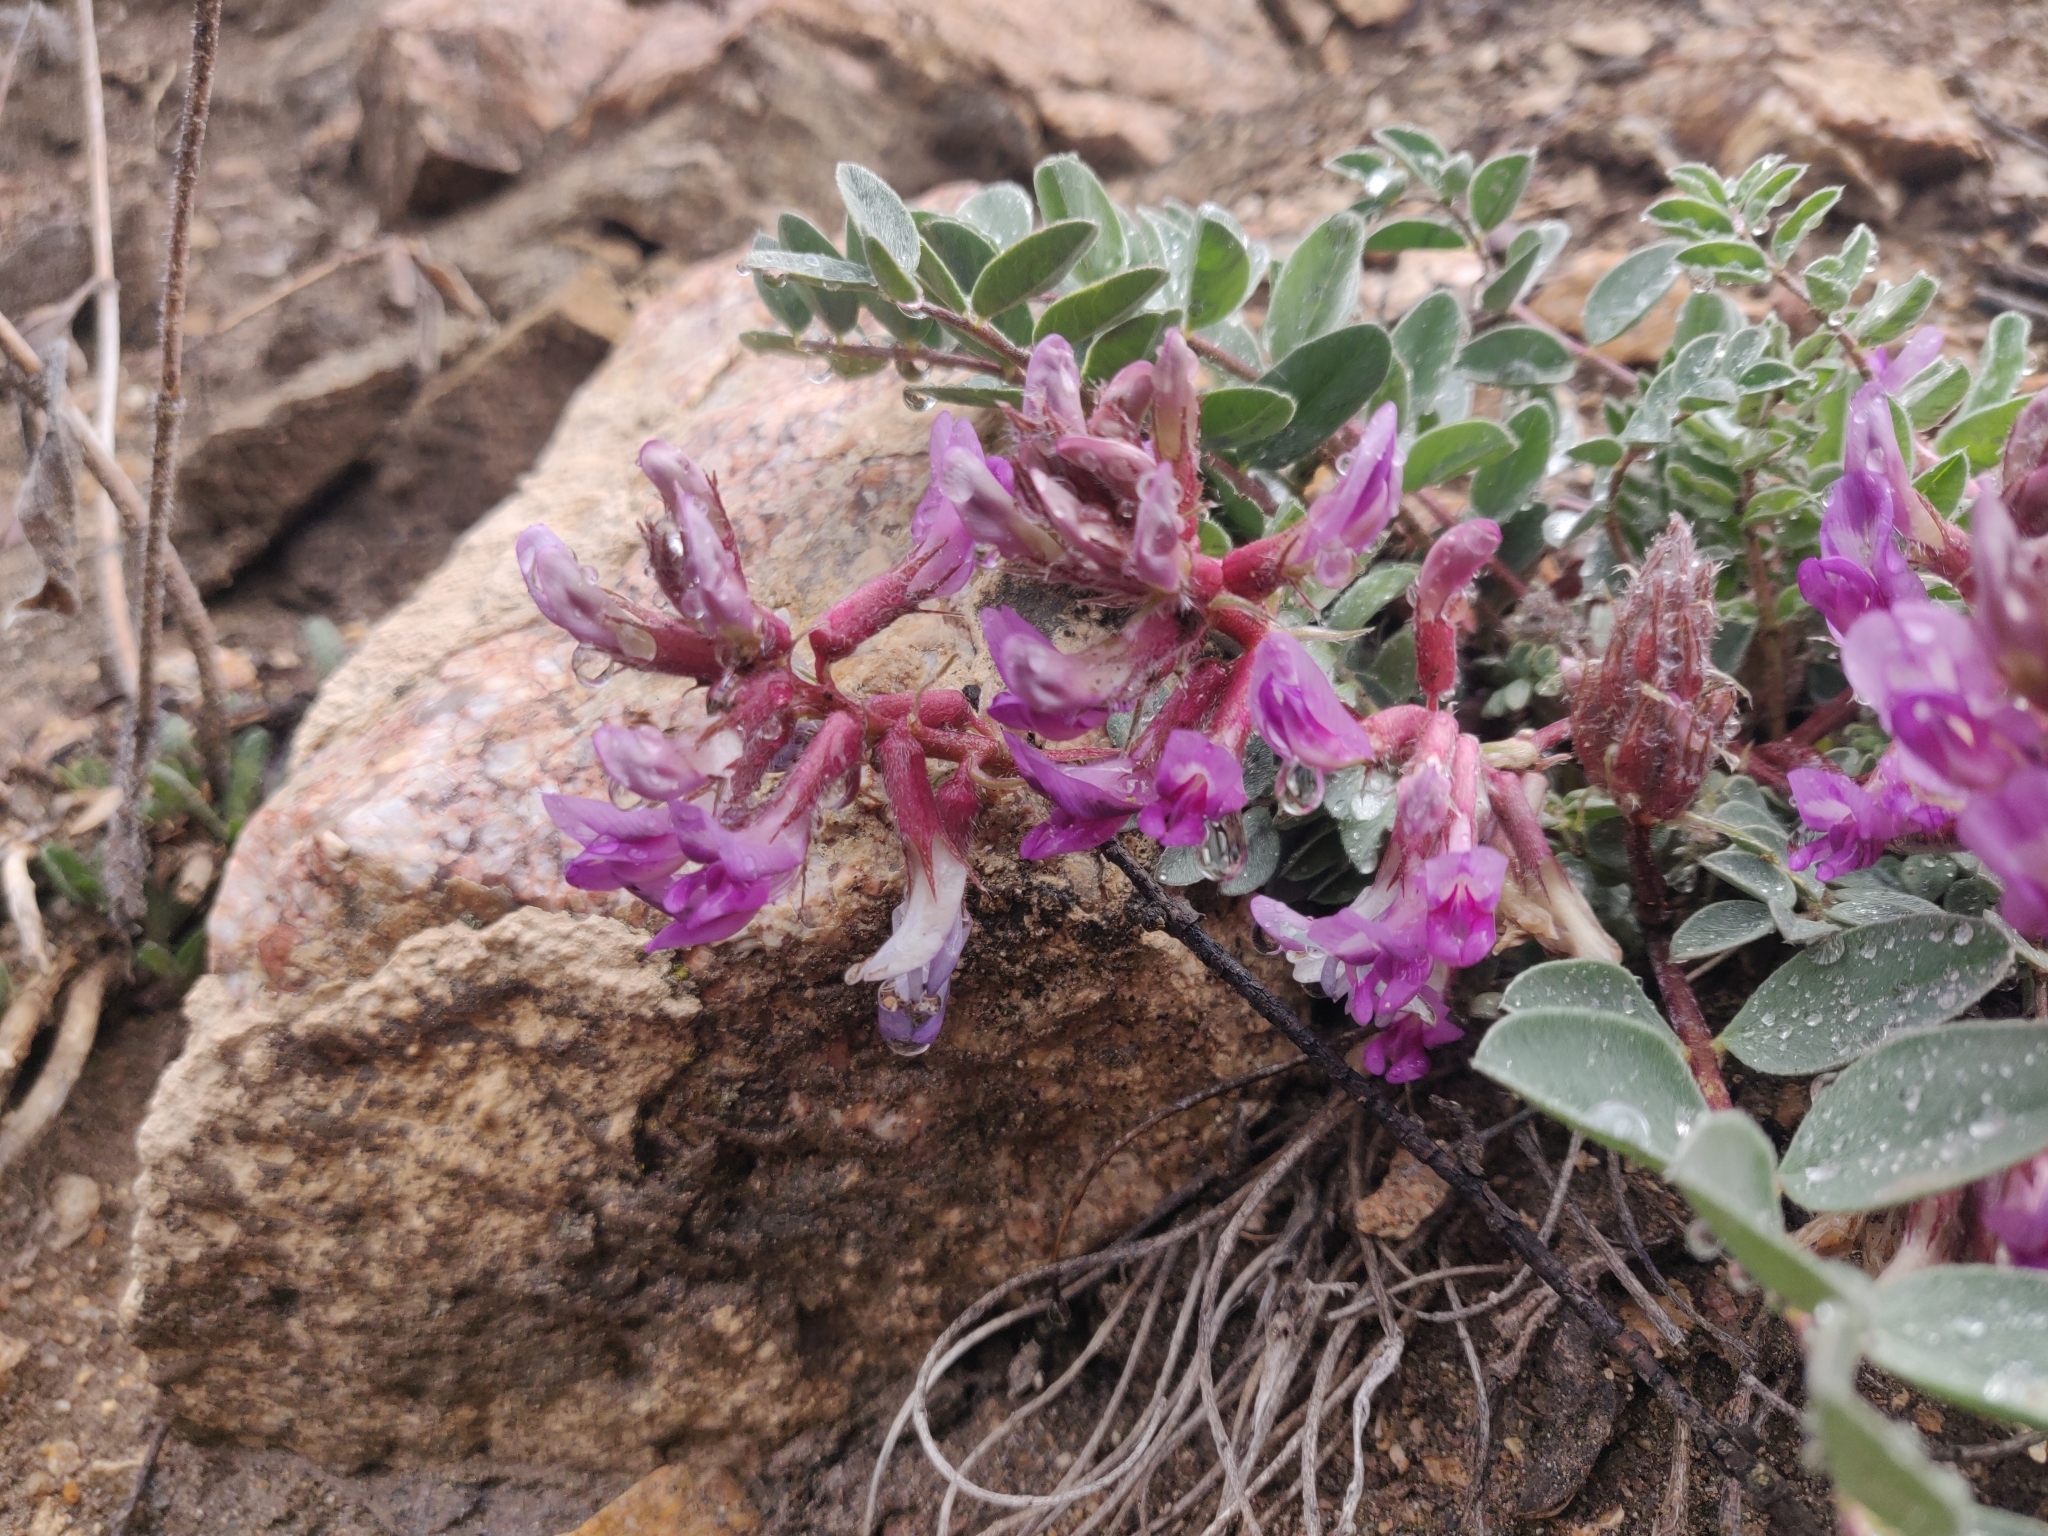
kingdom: Plantae
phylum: Tracheophyta
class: Magnoliopsida
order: Fabales
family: Fabaceae
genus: Astragalus
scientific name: Astragalus shortianus
